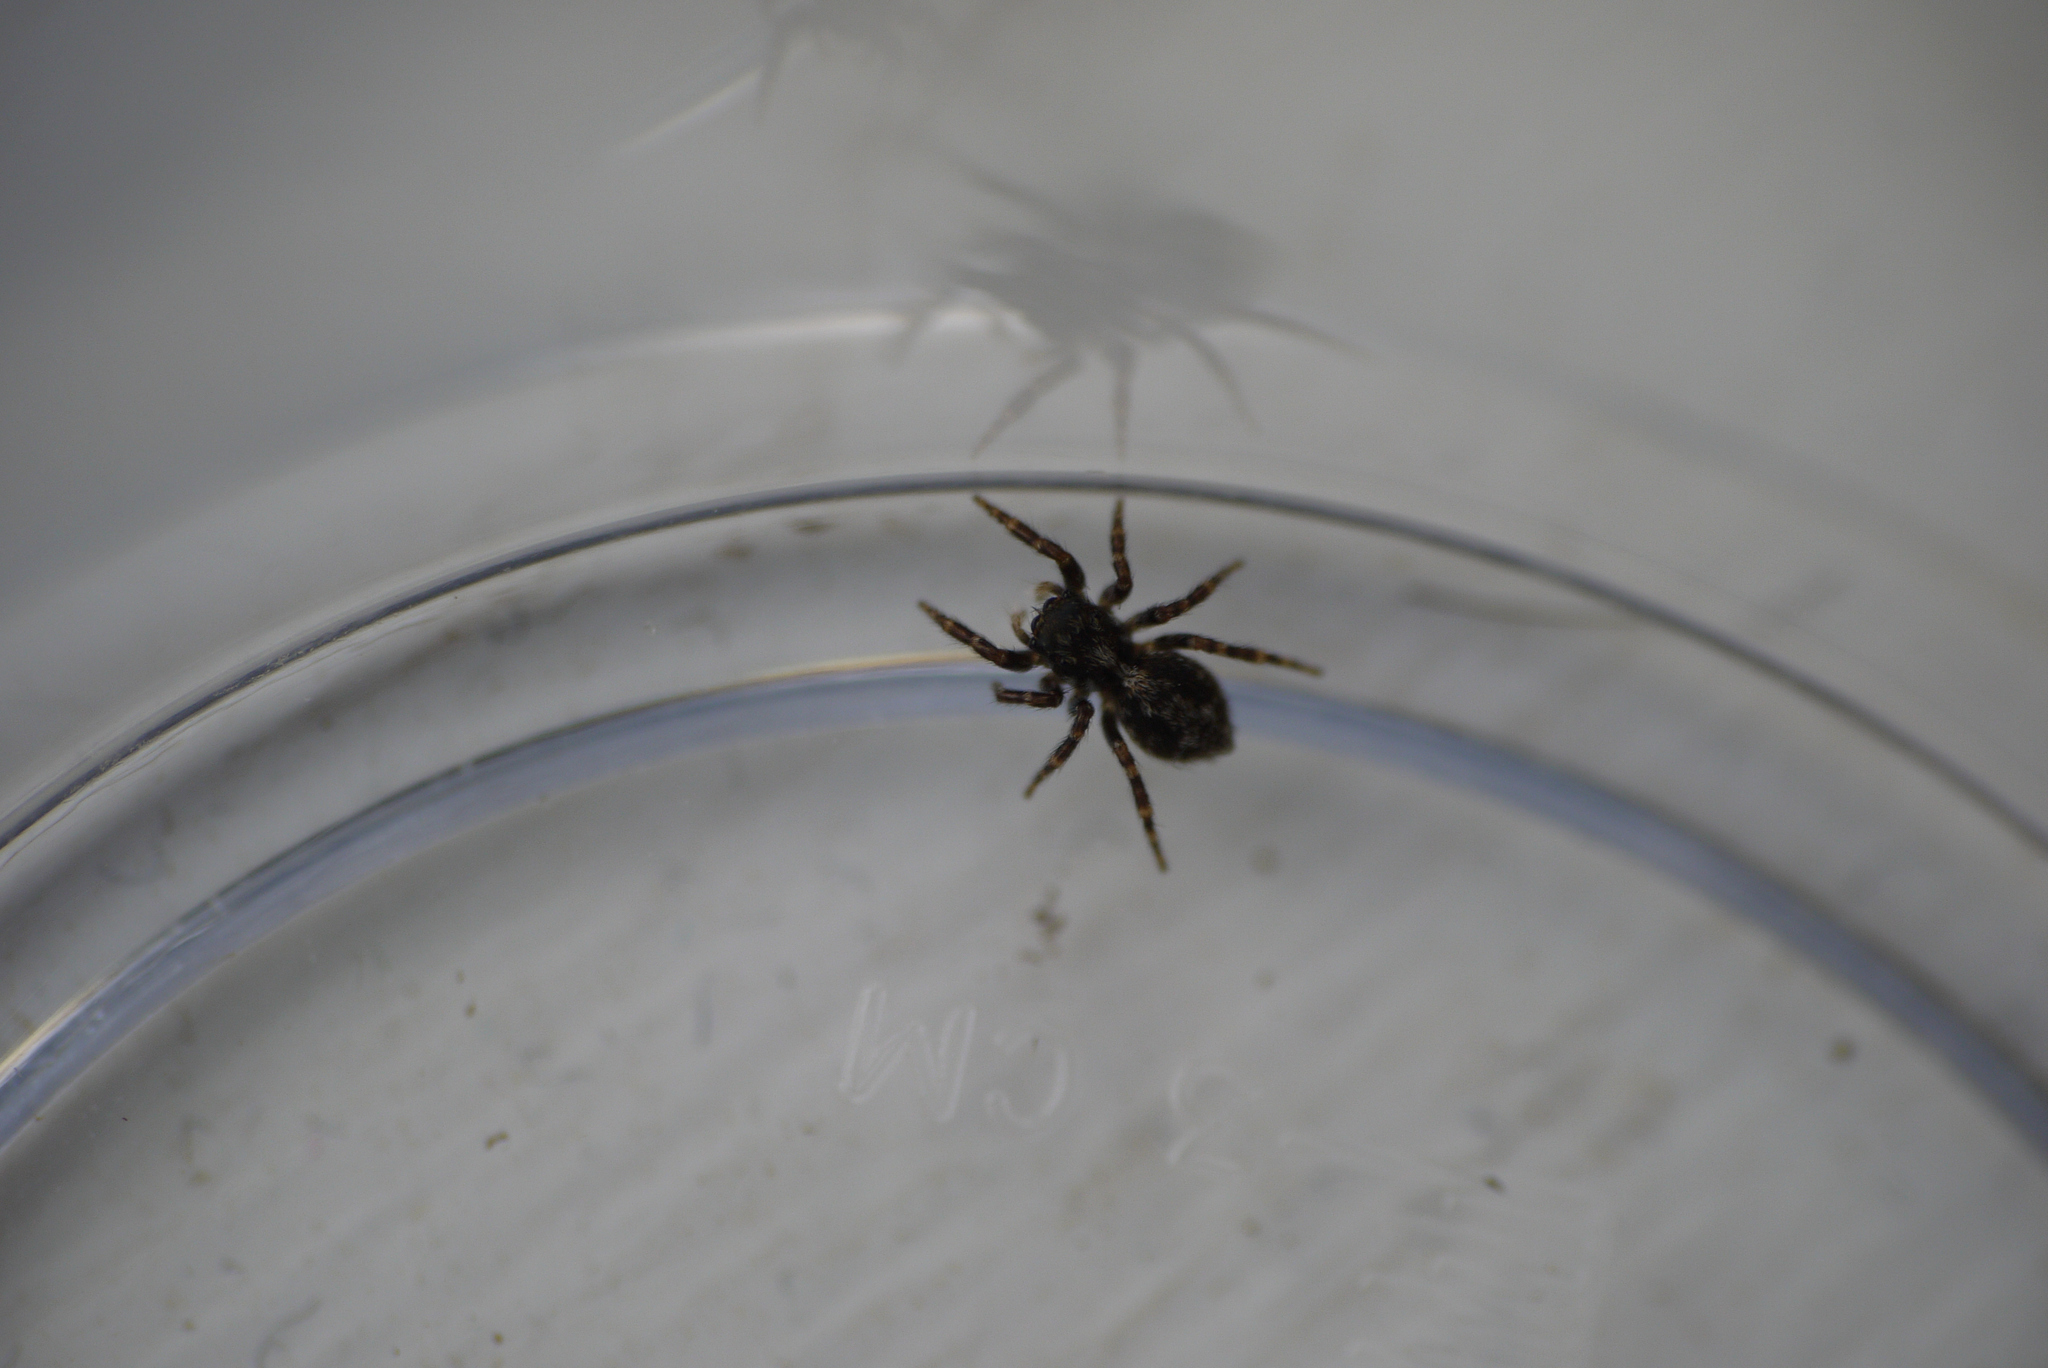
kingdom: Animalia
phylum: Arthropoda
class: Arachnida
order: Araneae
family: Salticidae
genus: Pseudeuophrys
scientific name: Pseudeuophrys lanigera
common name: Jumping spider
